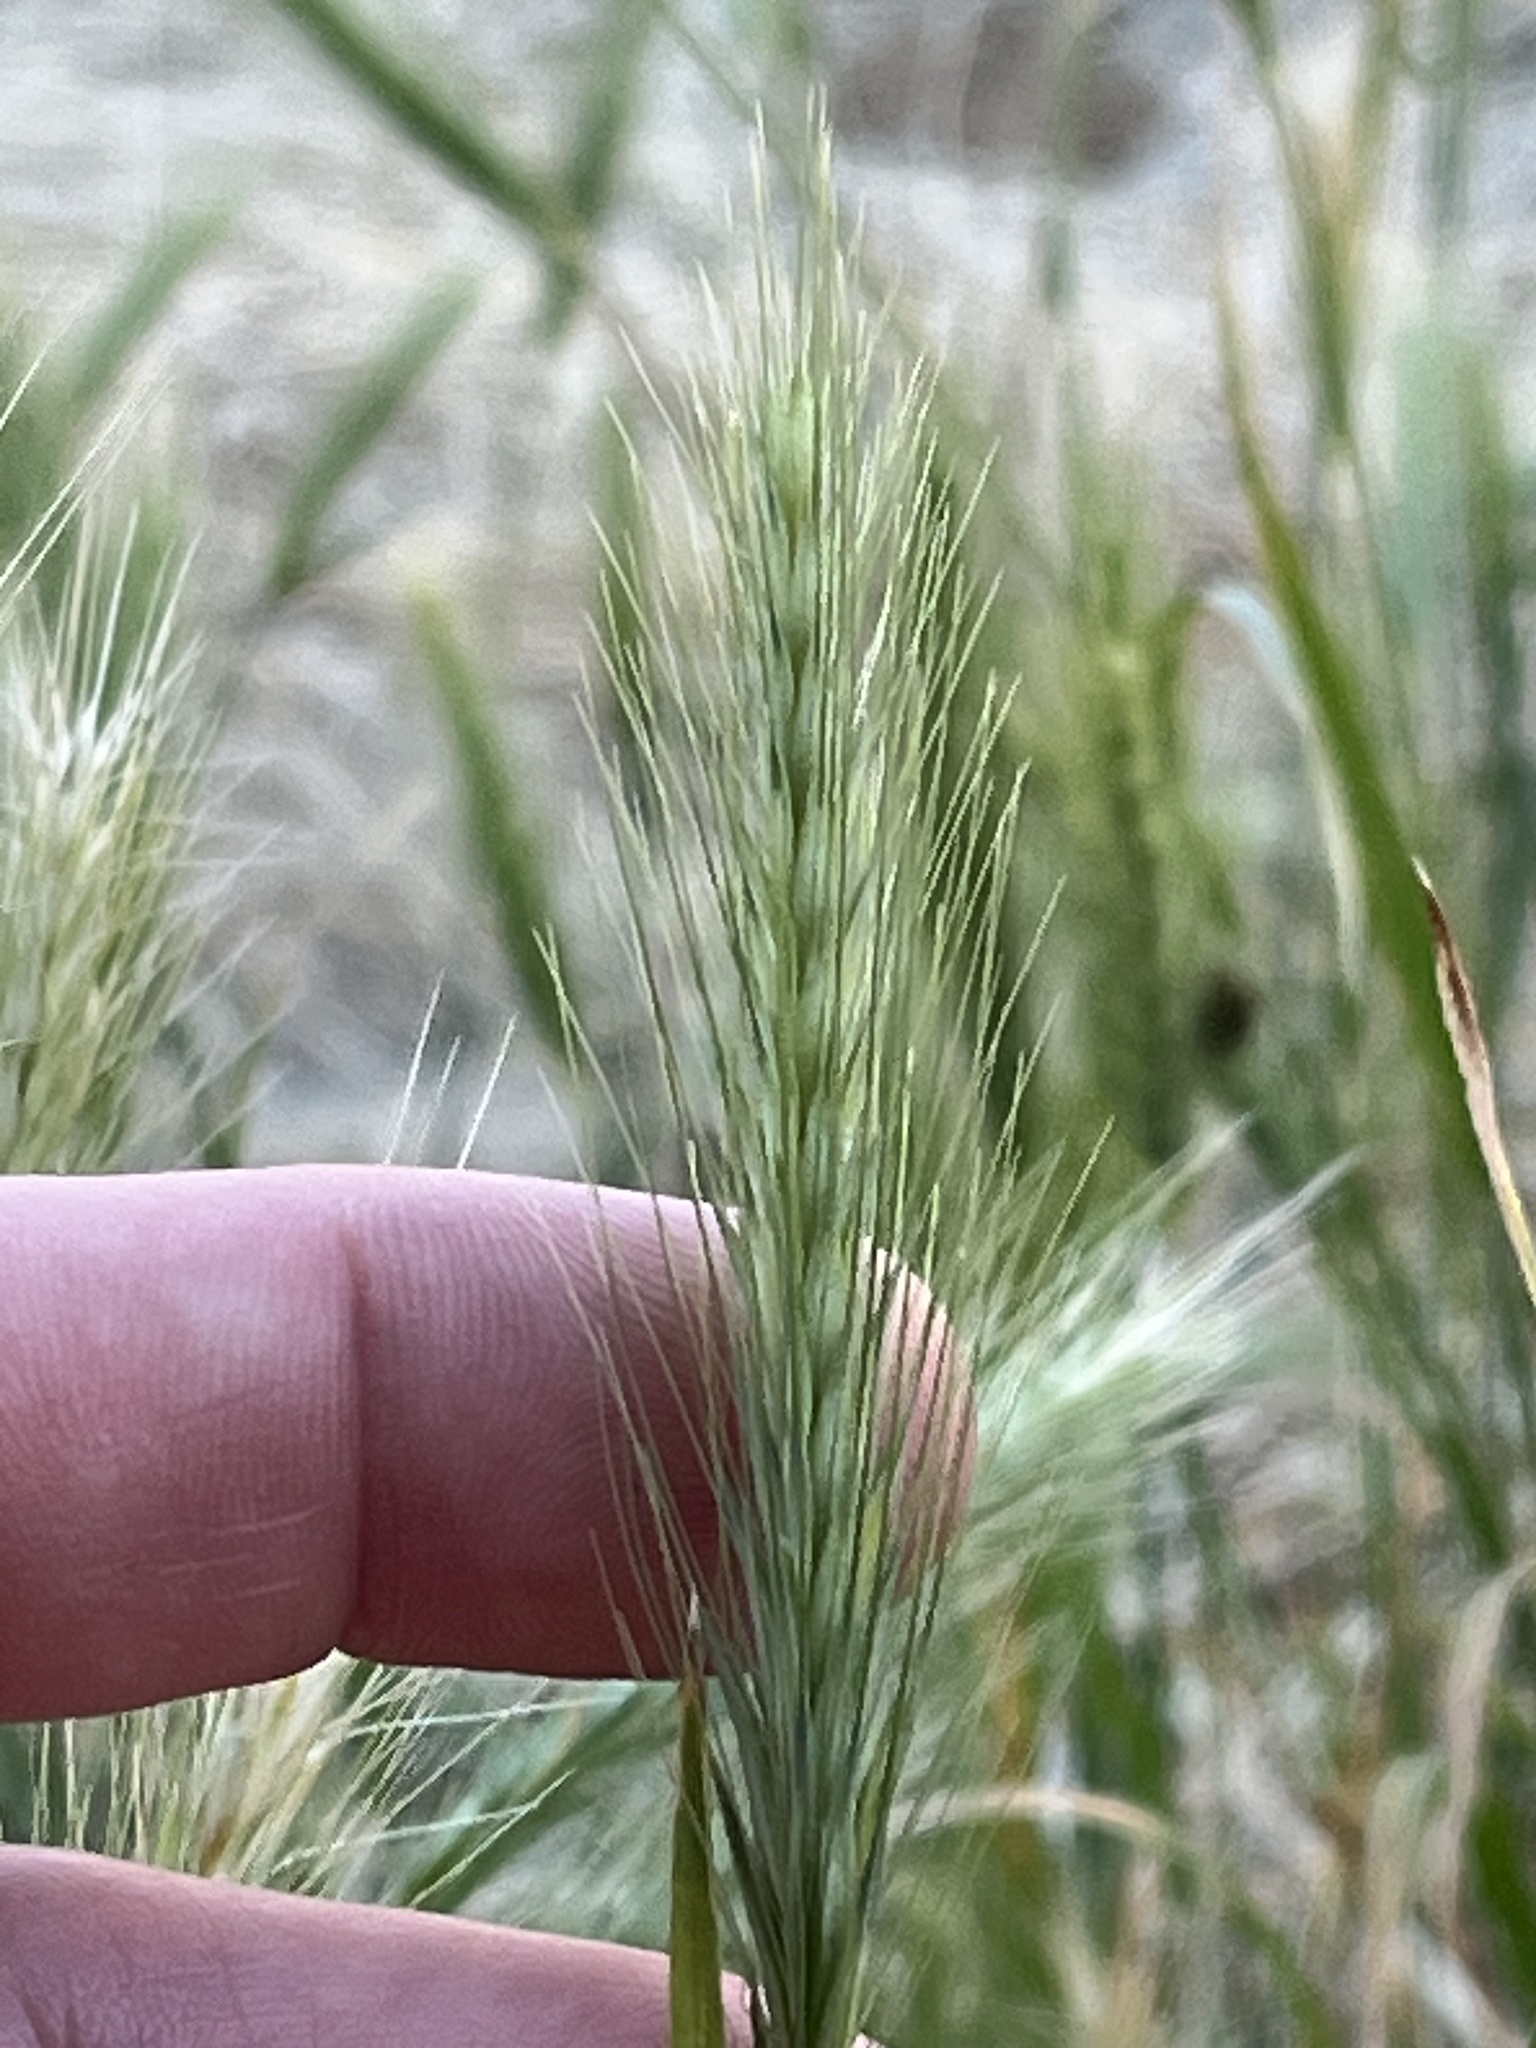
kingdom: Plantae
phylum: Tracheophyta
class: Liliopsida
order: Poales
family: Poaceae
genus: Hordeum
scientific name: Hordeum murinum
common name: Wall barley
